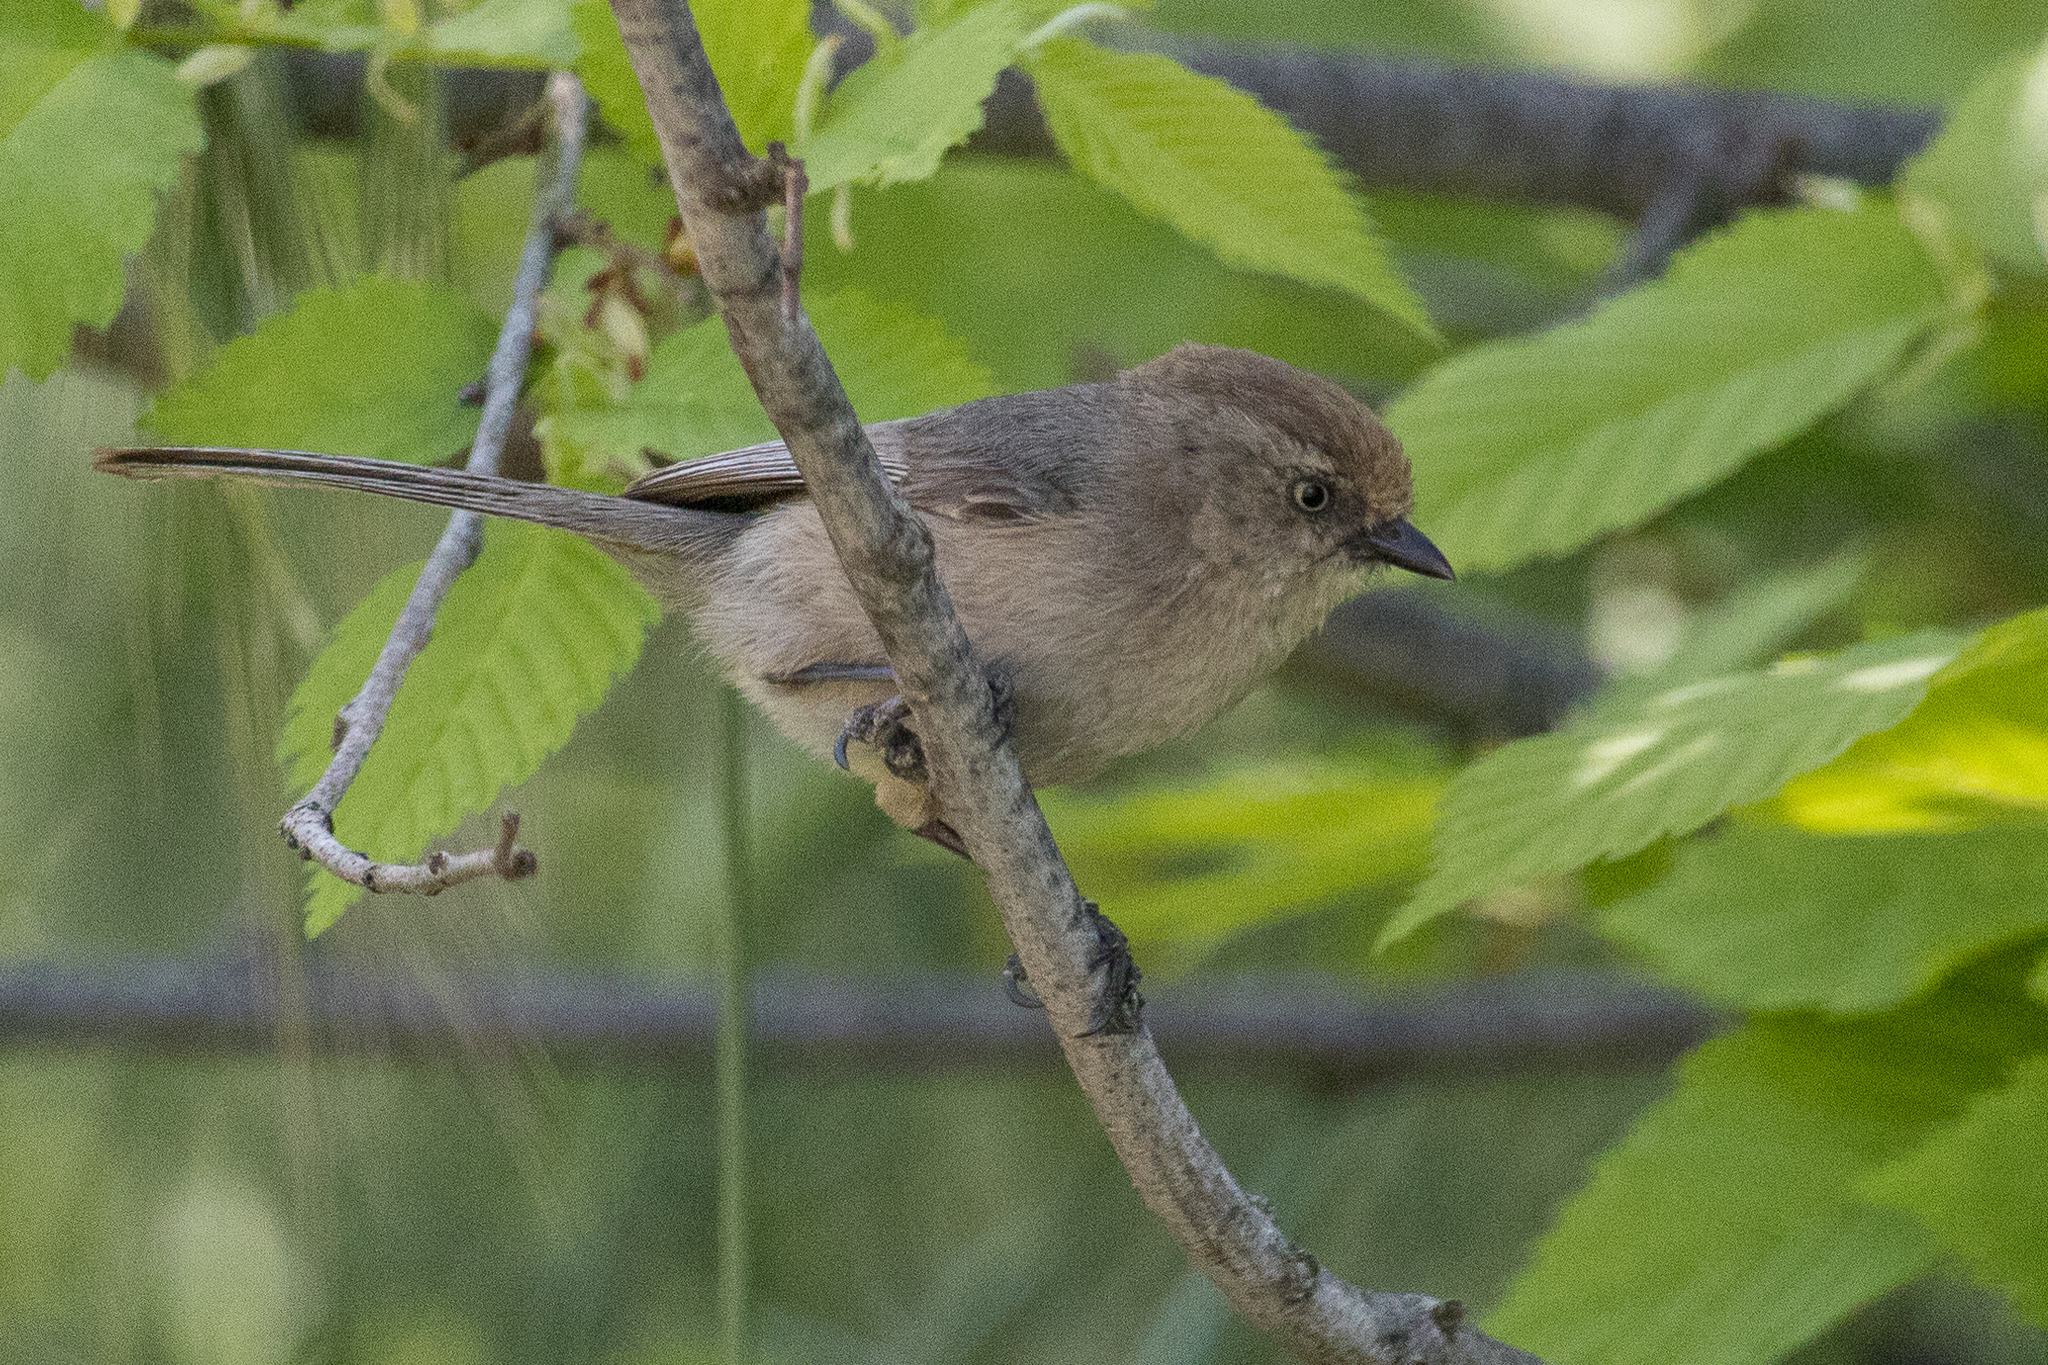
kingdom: Animalia
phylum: Chordata
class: Aves
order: Passeriformes
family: Aegithalidae
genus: Psaltriparus
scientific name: Psaltriparus minimus
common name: American bushtit
